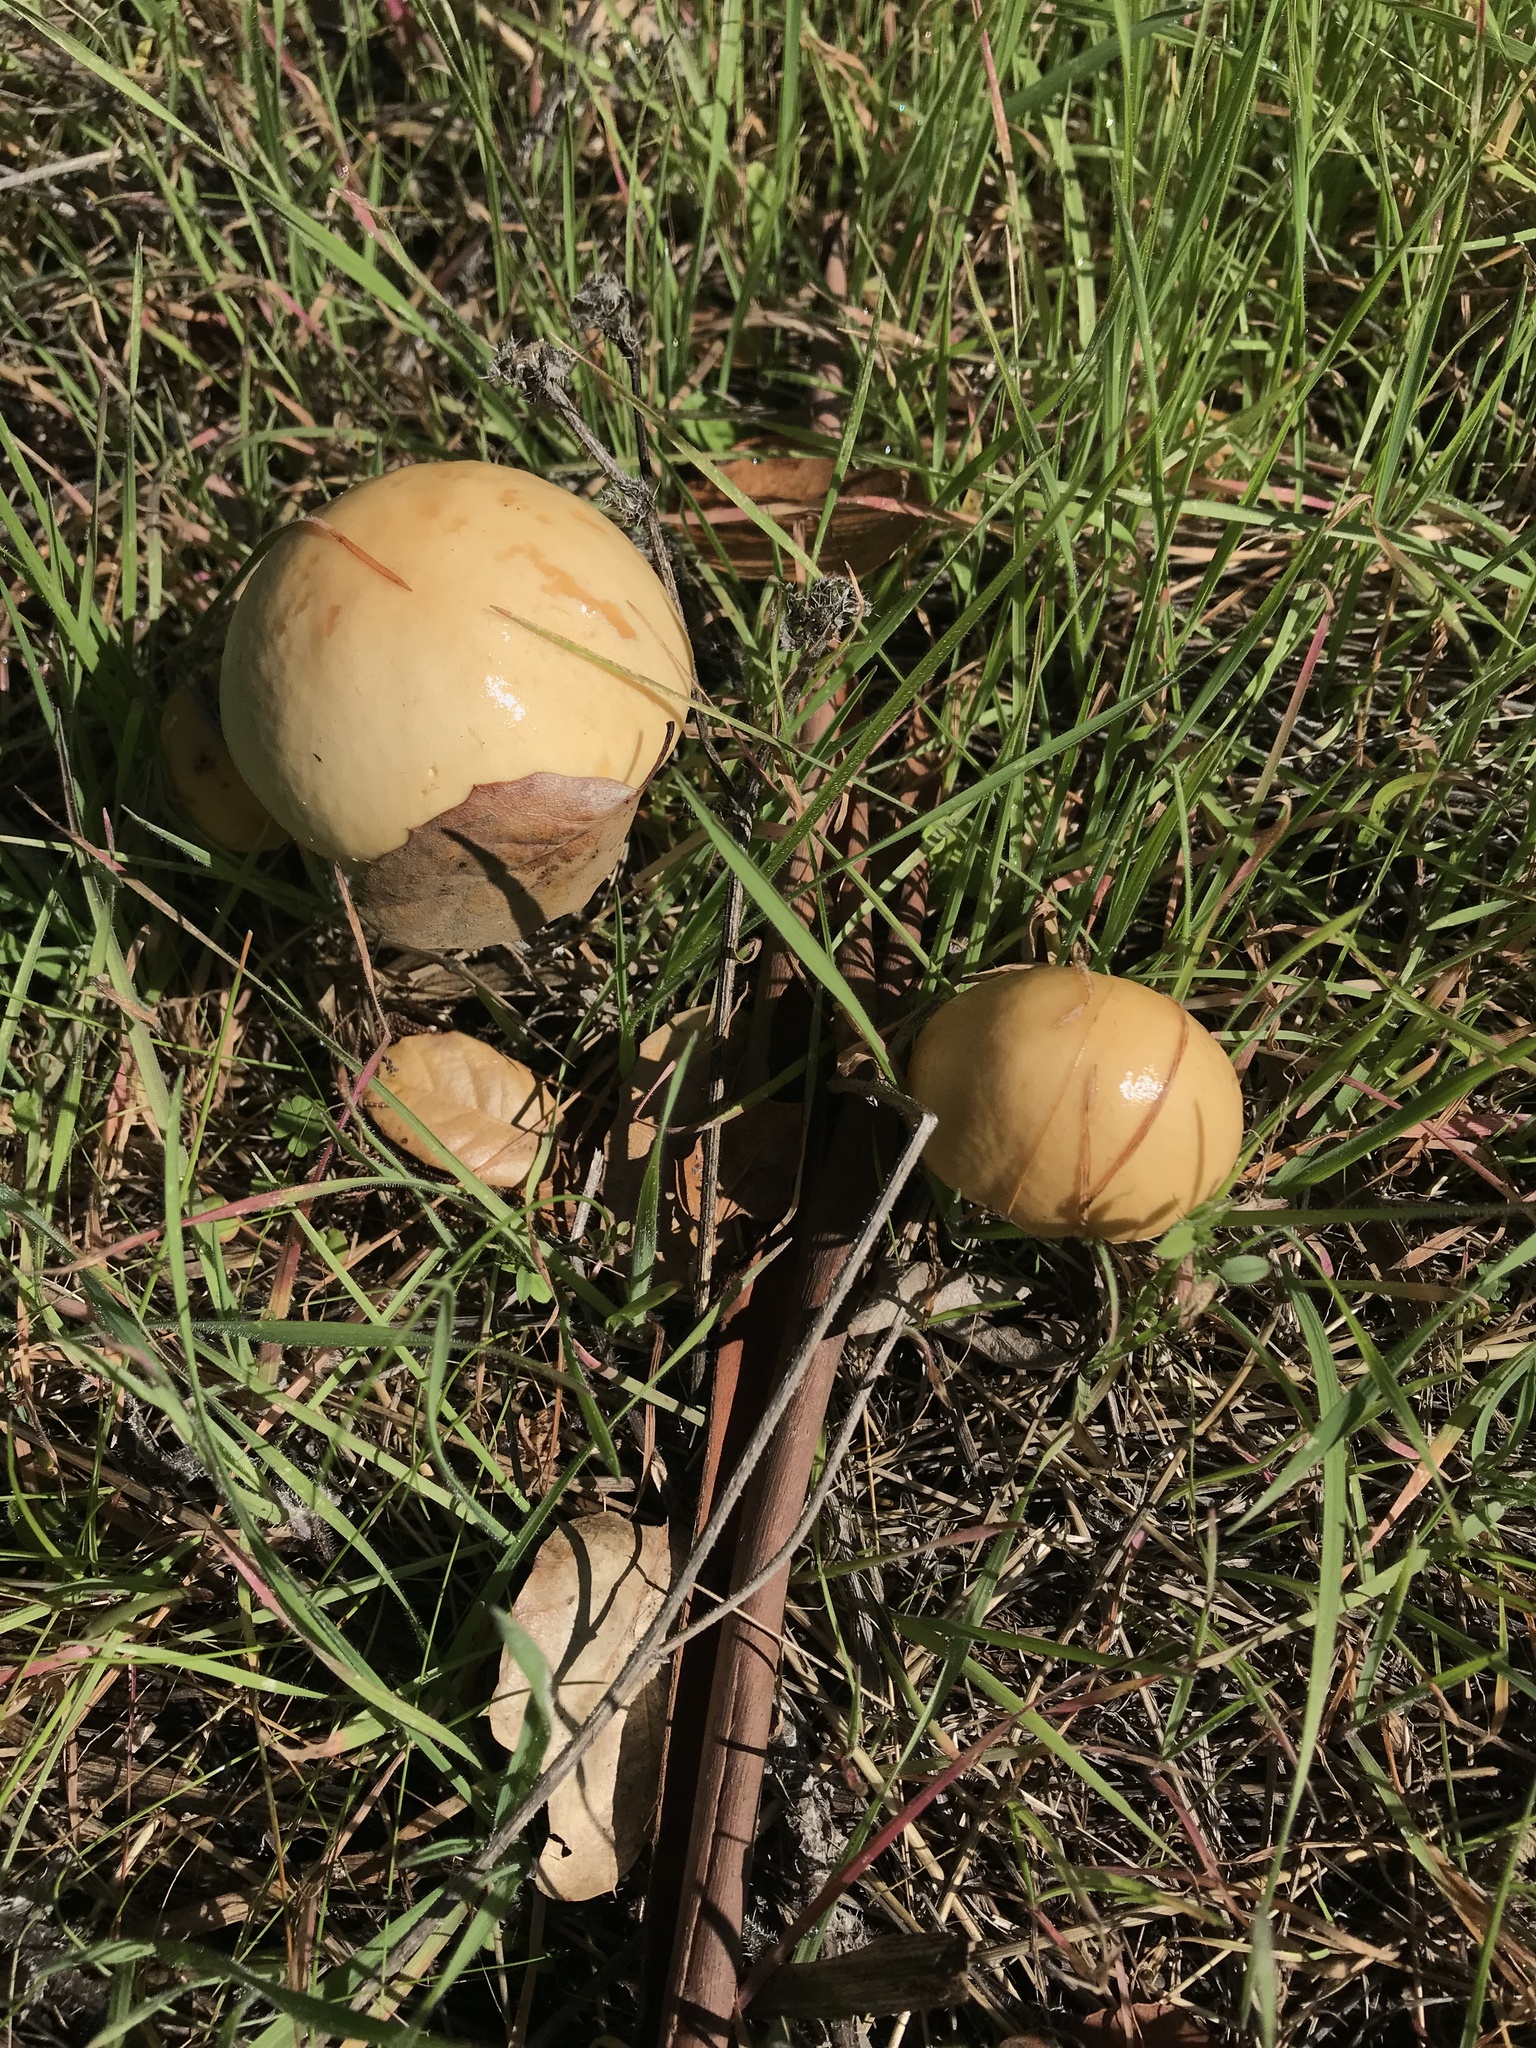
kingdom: Fungi
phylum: Basidiomycota
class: Agaricomycetes
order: Agaricales
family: Strophariaceae
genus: Leratiomyces
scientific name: Leratiomyces percevalii
